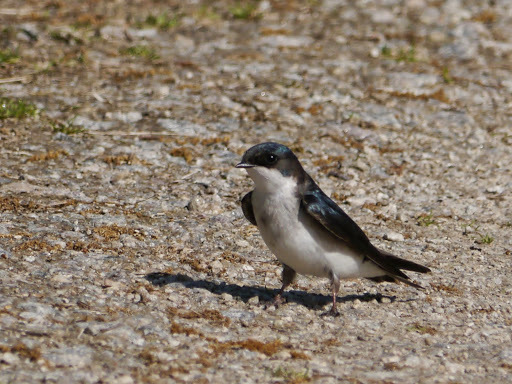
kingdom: Animalia
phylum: Chordata
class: Aves
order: Passeriformes
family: Hirundinidae
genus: Tachycineta
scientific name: Tachycineta bicolor
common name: Tree swallow
